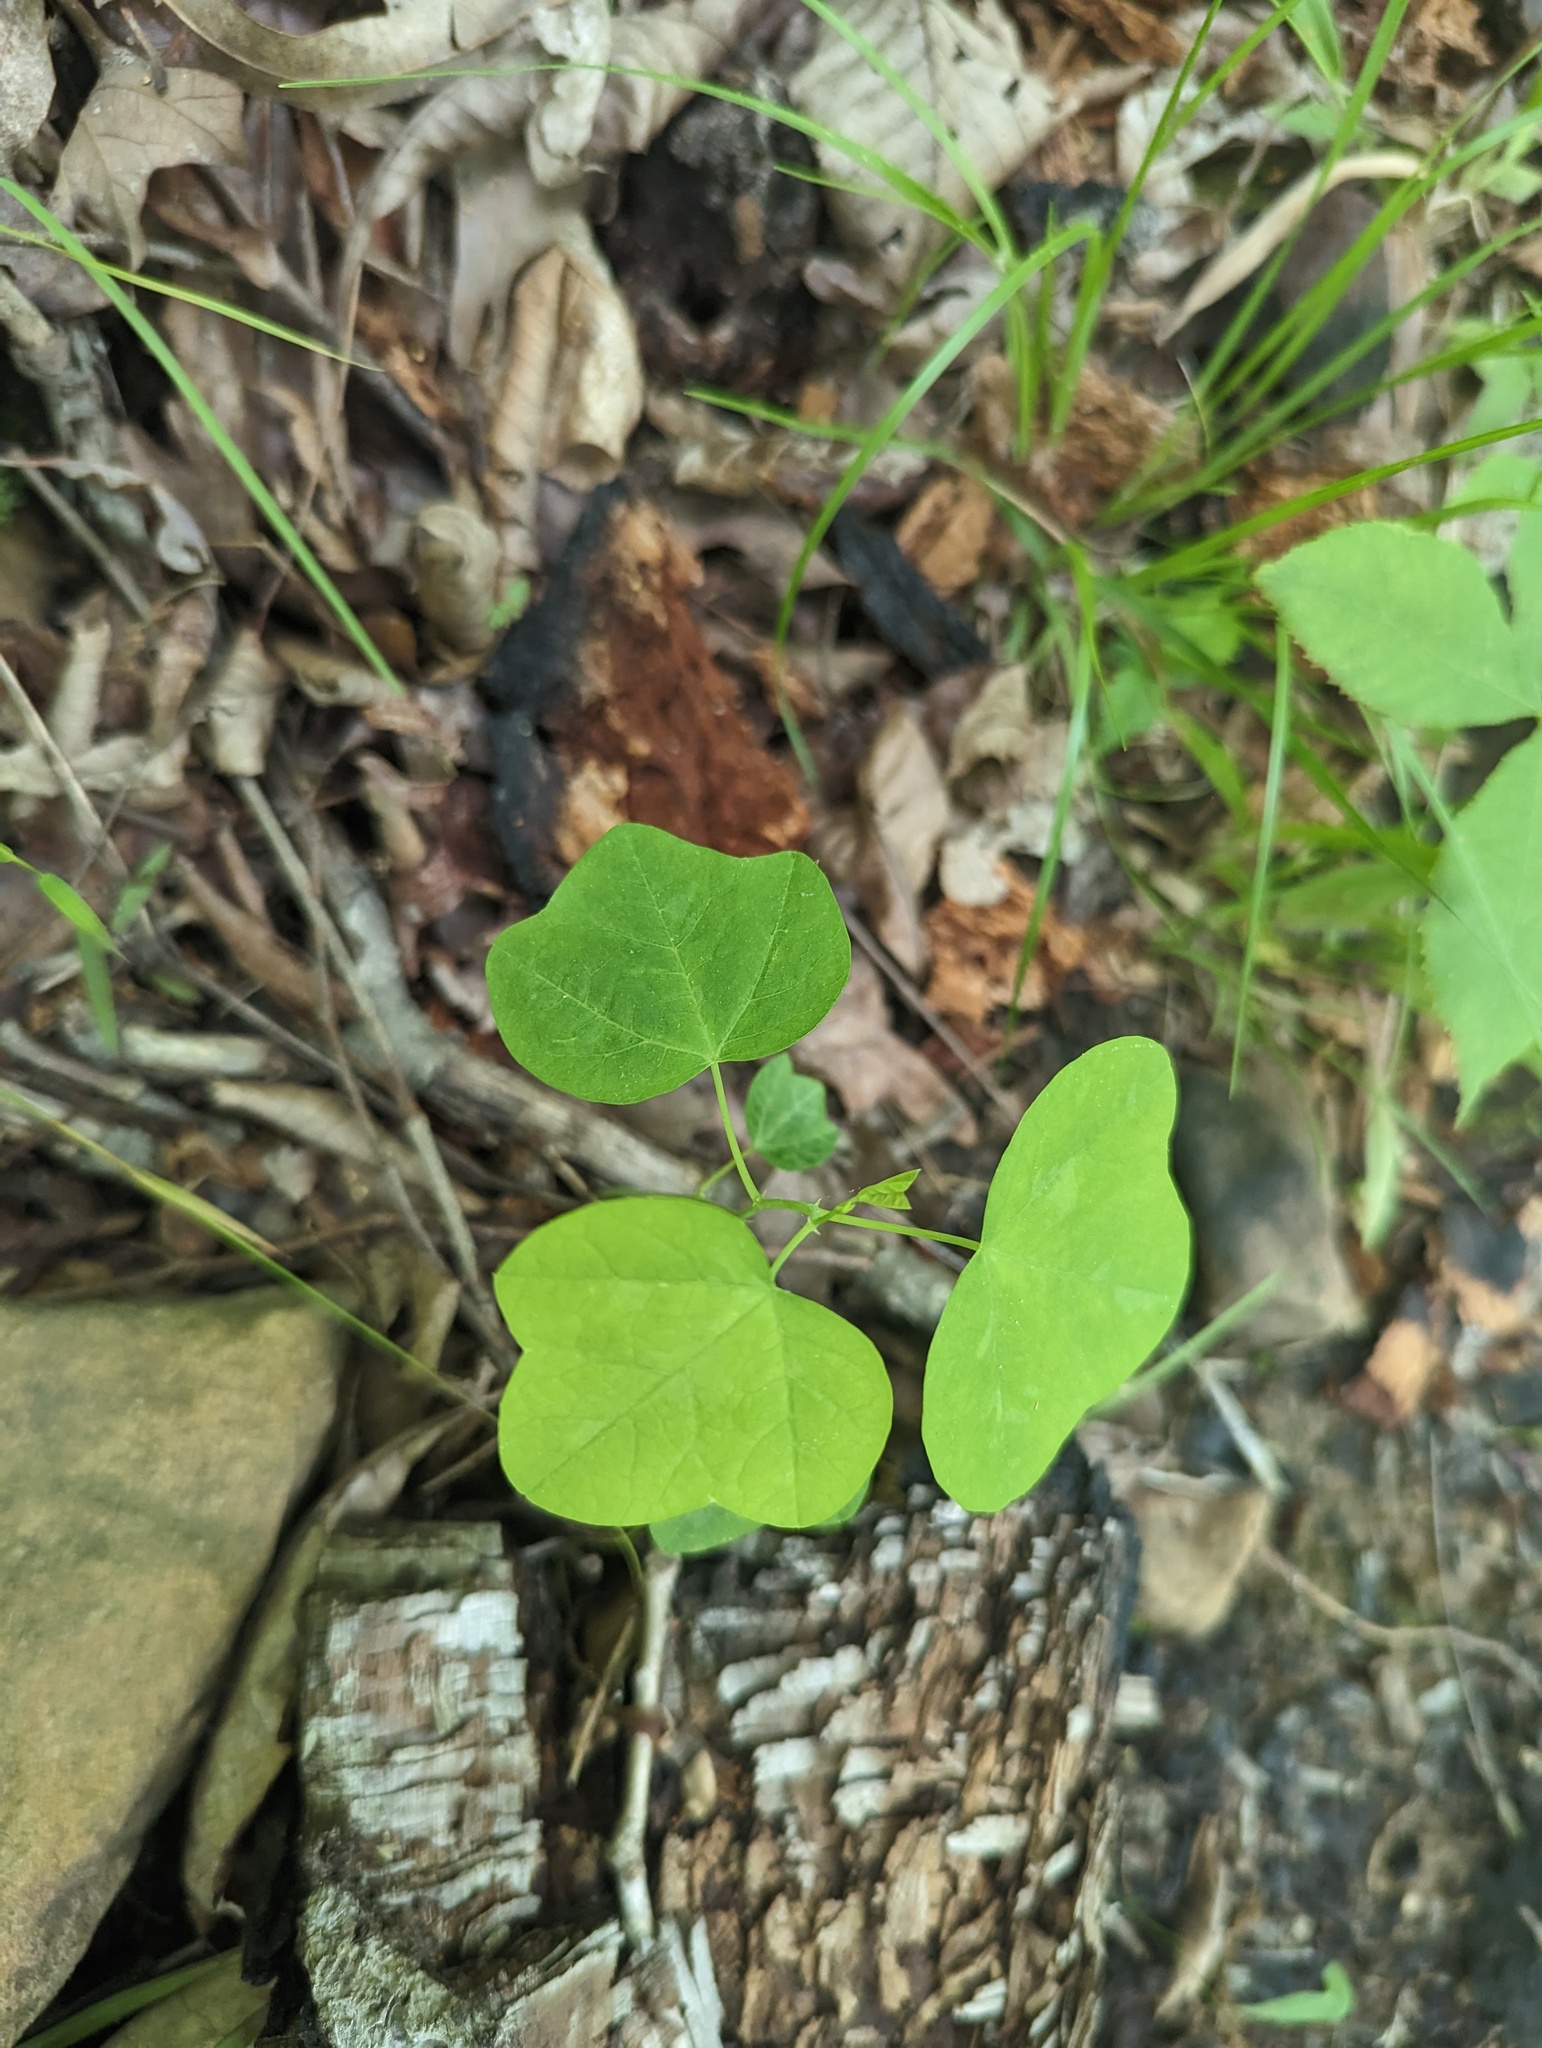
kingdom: Plantae
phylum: Tracheophyta
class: Magnoliopsida
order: Malpighiales
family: Passifloraceae
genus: Passiflora
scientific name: Passiflora lutea
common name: Yellow passionflower
